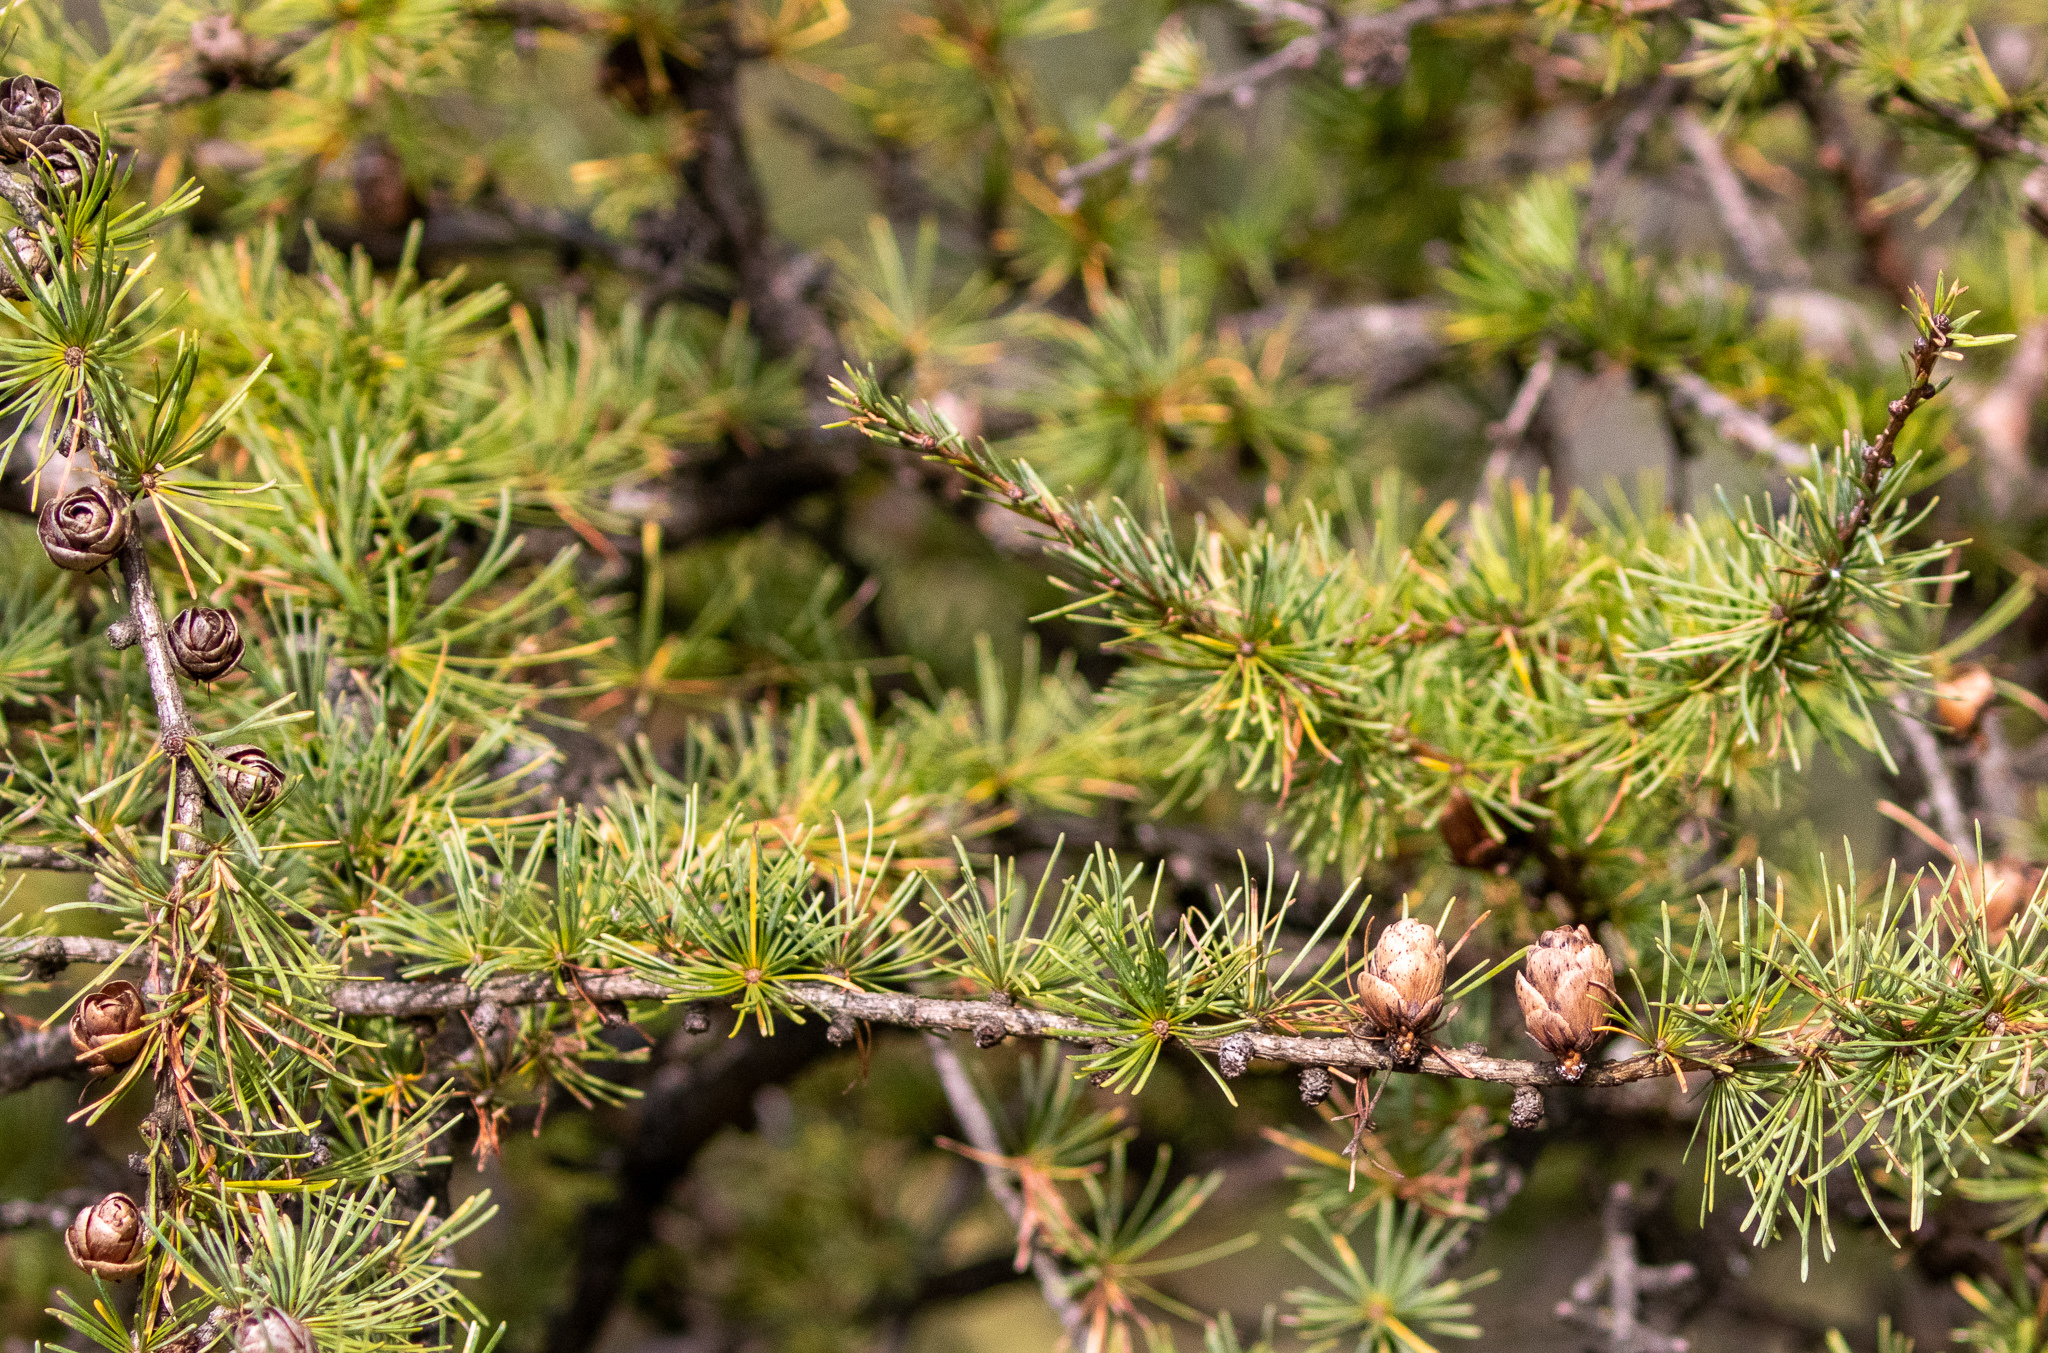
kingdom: Plantae
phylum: Tracheophyta
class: Pinopsida
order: Pinales
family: Pinaceae
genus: Larix
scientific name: Larix laricina
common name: American larch
